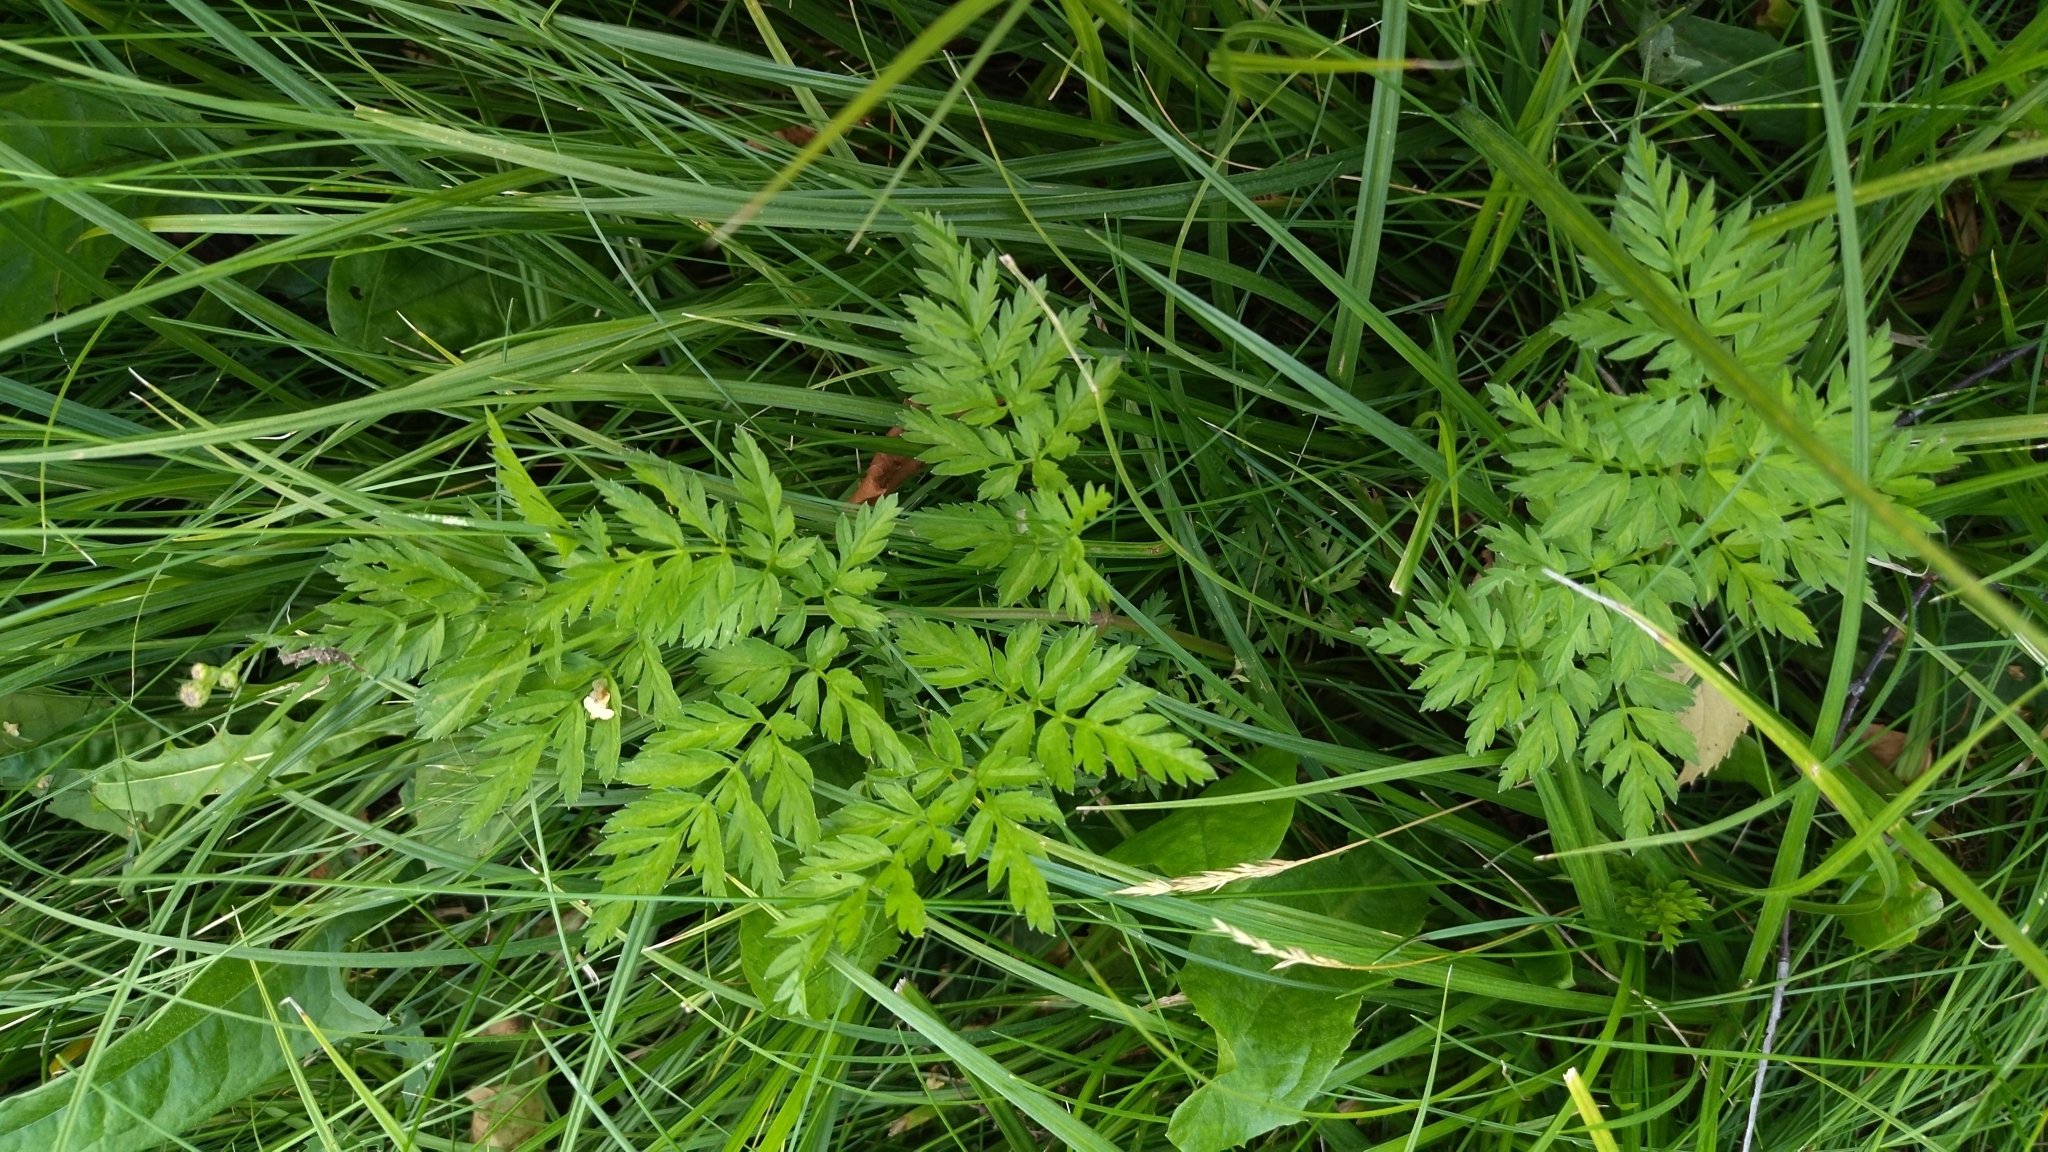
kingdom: Plantae
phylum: Tracheophyta
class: Magnoliopsida
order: Apiales
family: Apiaceae
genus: Anthriscus
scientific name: Anthriscus sylvestris
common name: Cow parsley
